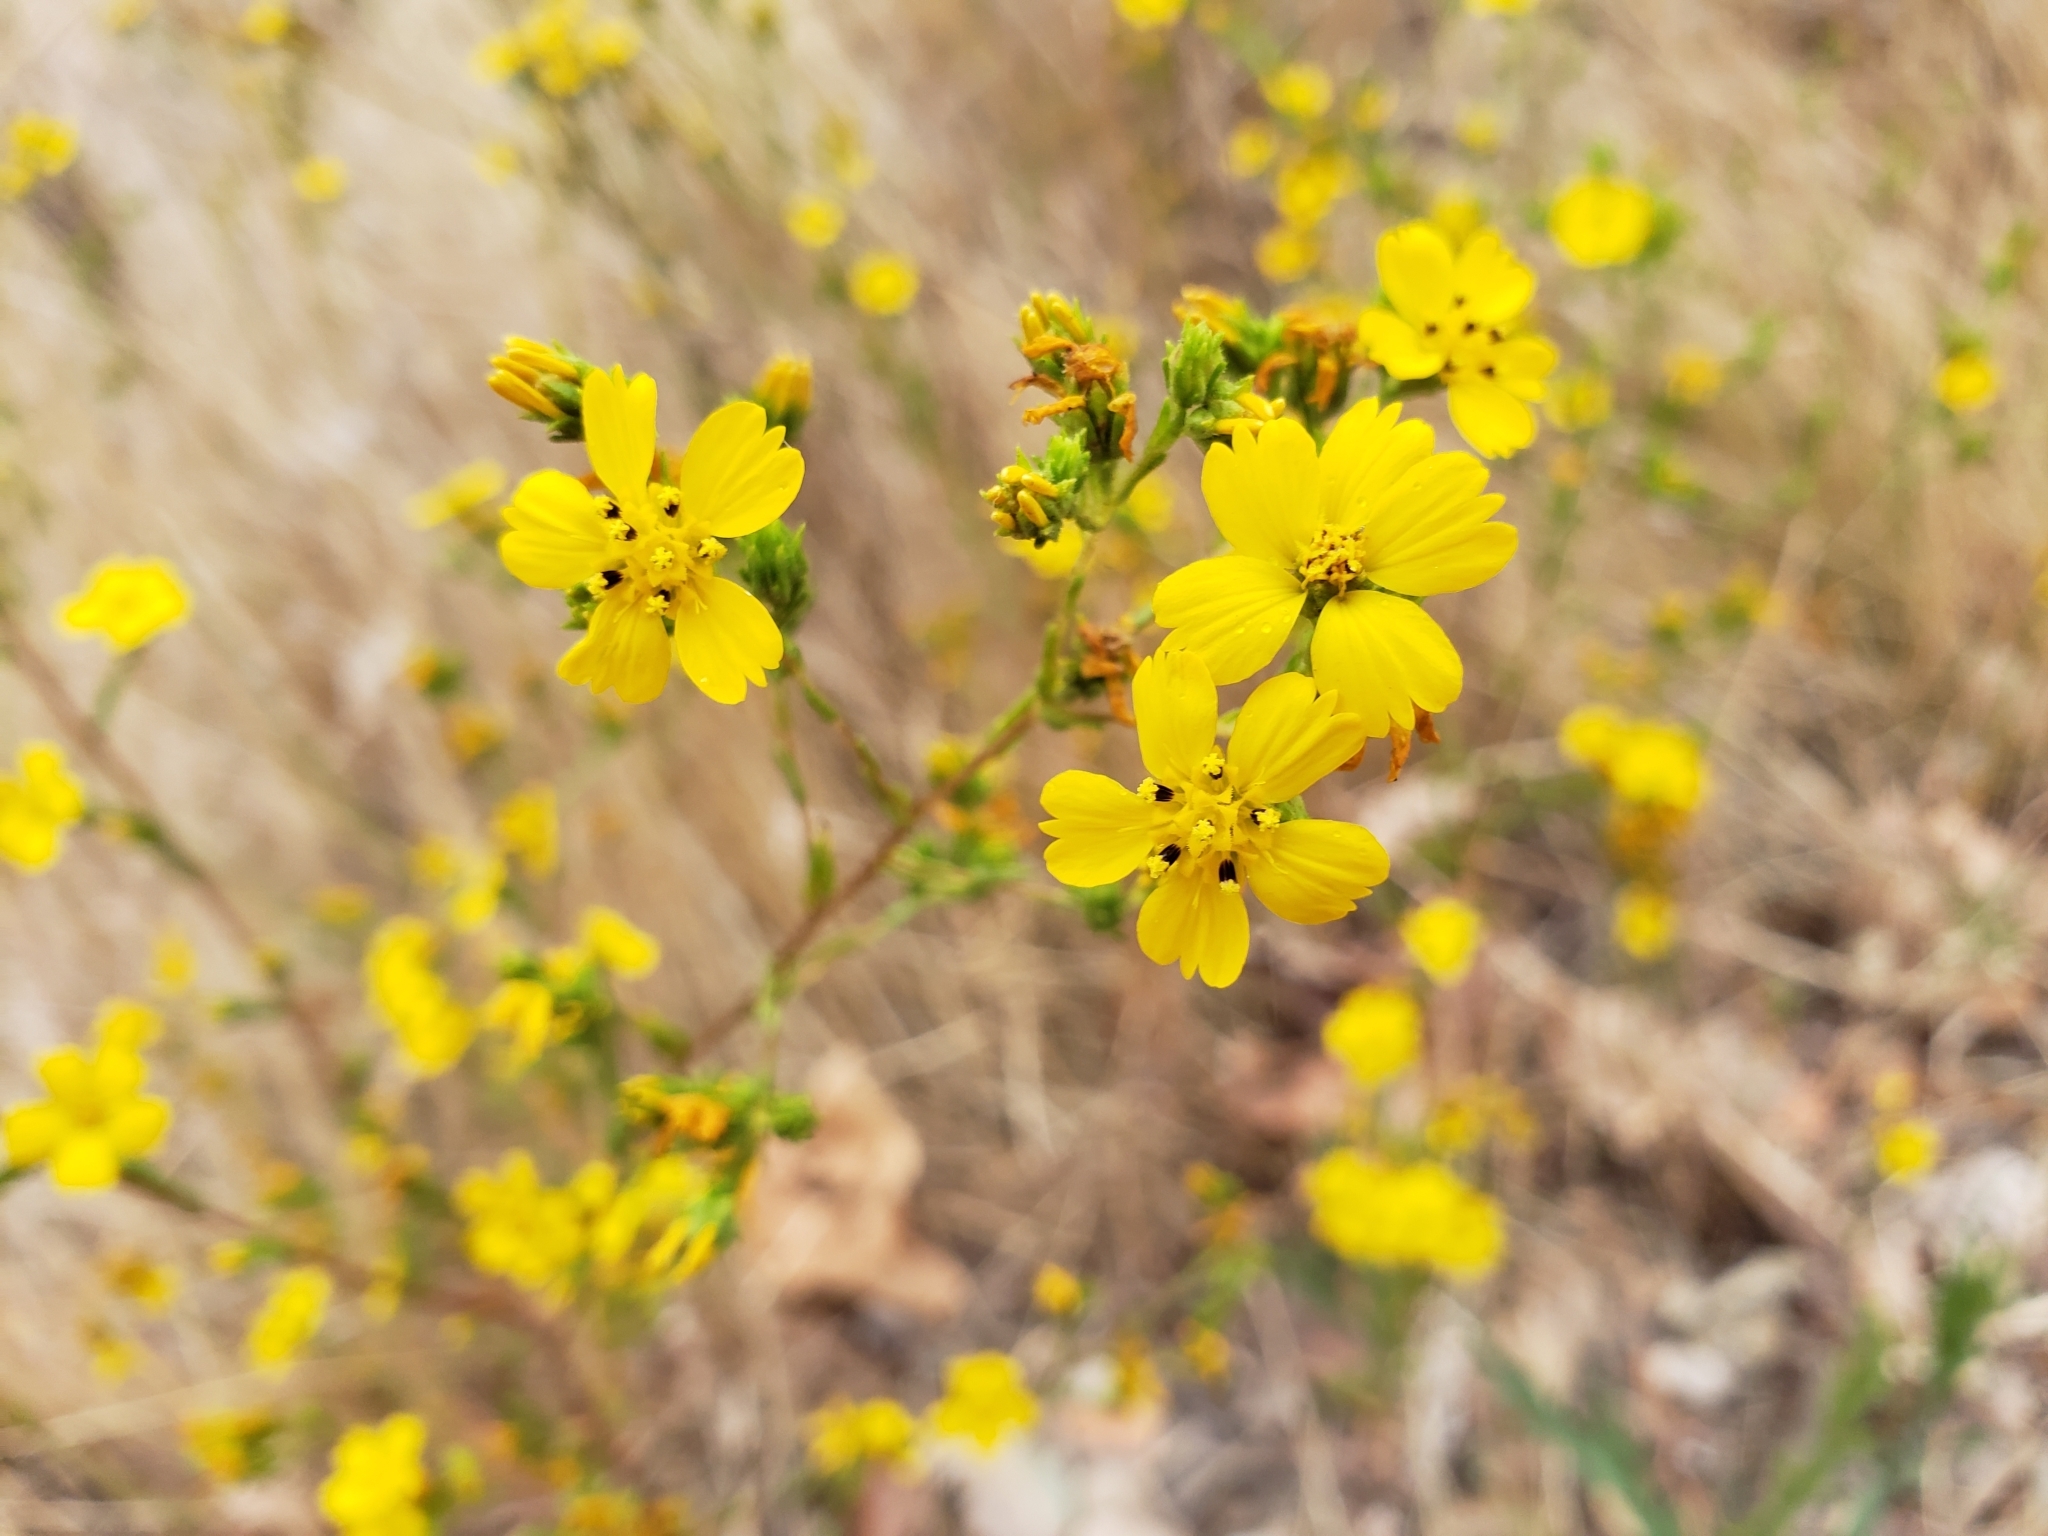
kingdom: Plantae
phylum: Tracheophyta
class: Magnoliopsida
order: Asterales
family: Asteraceae
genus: Deinandra
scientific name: Deinandra fasciculata
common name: Clustered tarweed
